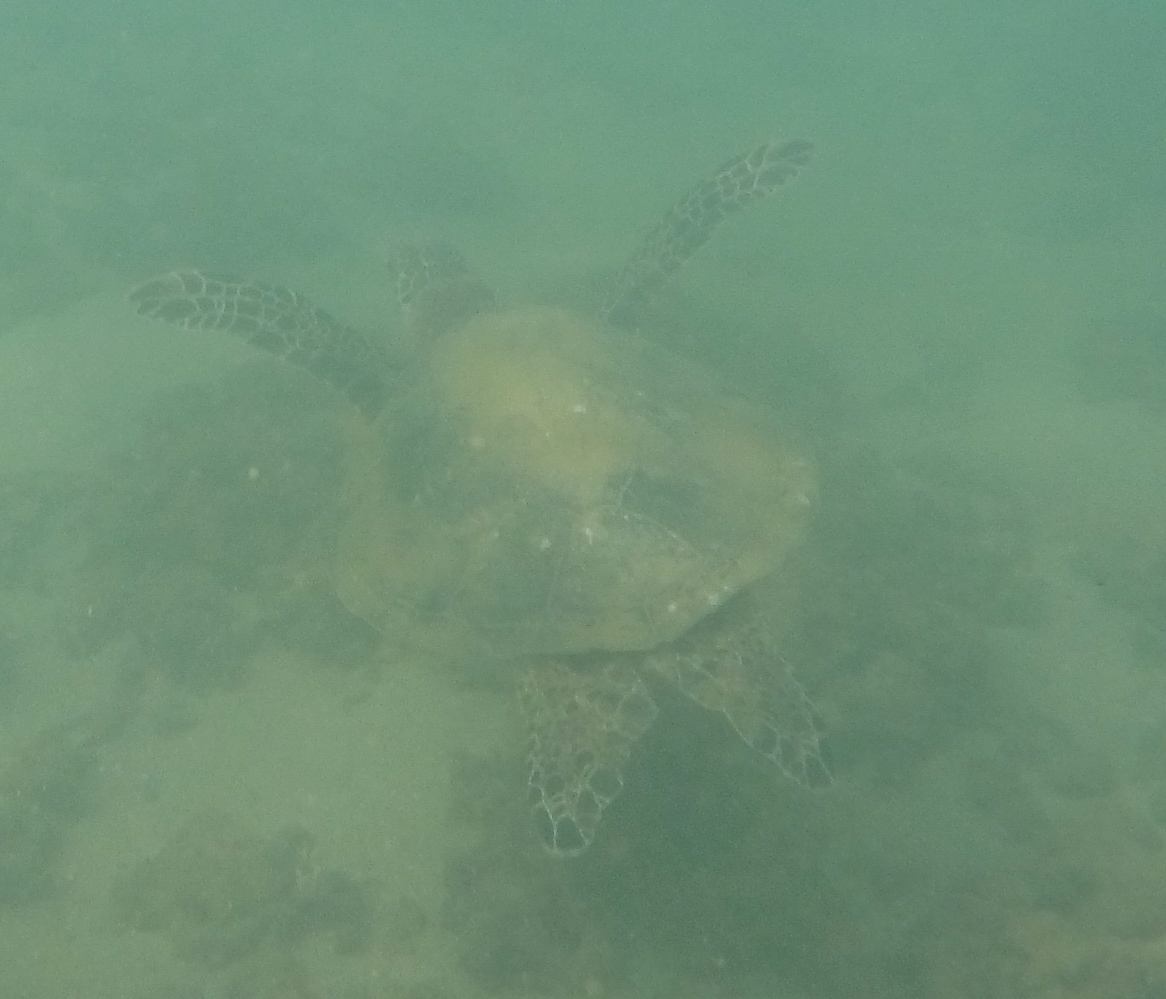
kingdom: Animalia
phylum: Chordata
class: Testudines
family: Cheloniidae
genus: Chelonia
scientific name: Chelonia mydas
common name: Green turtle
